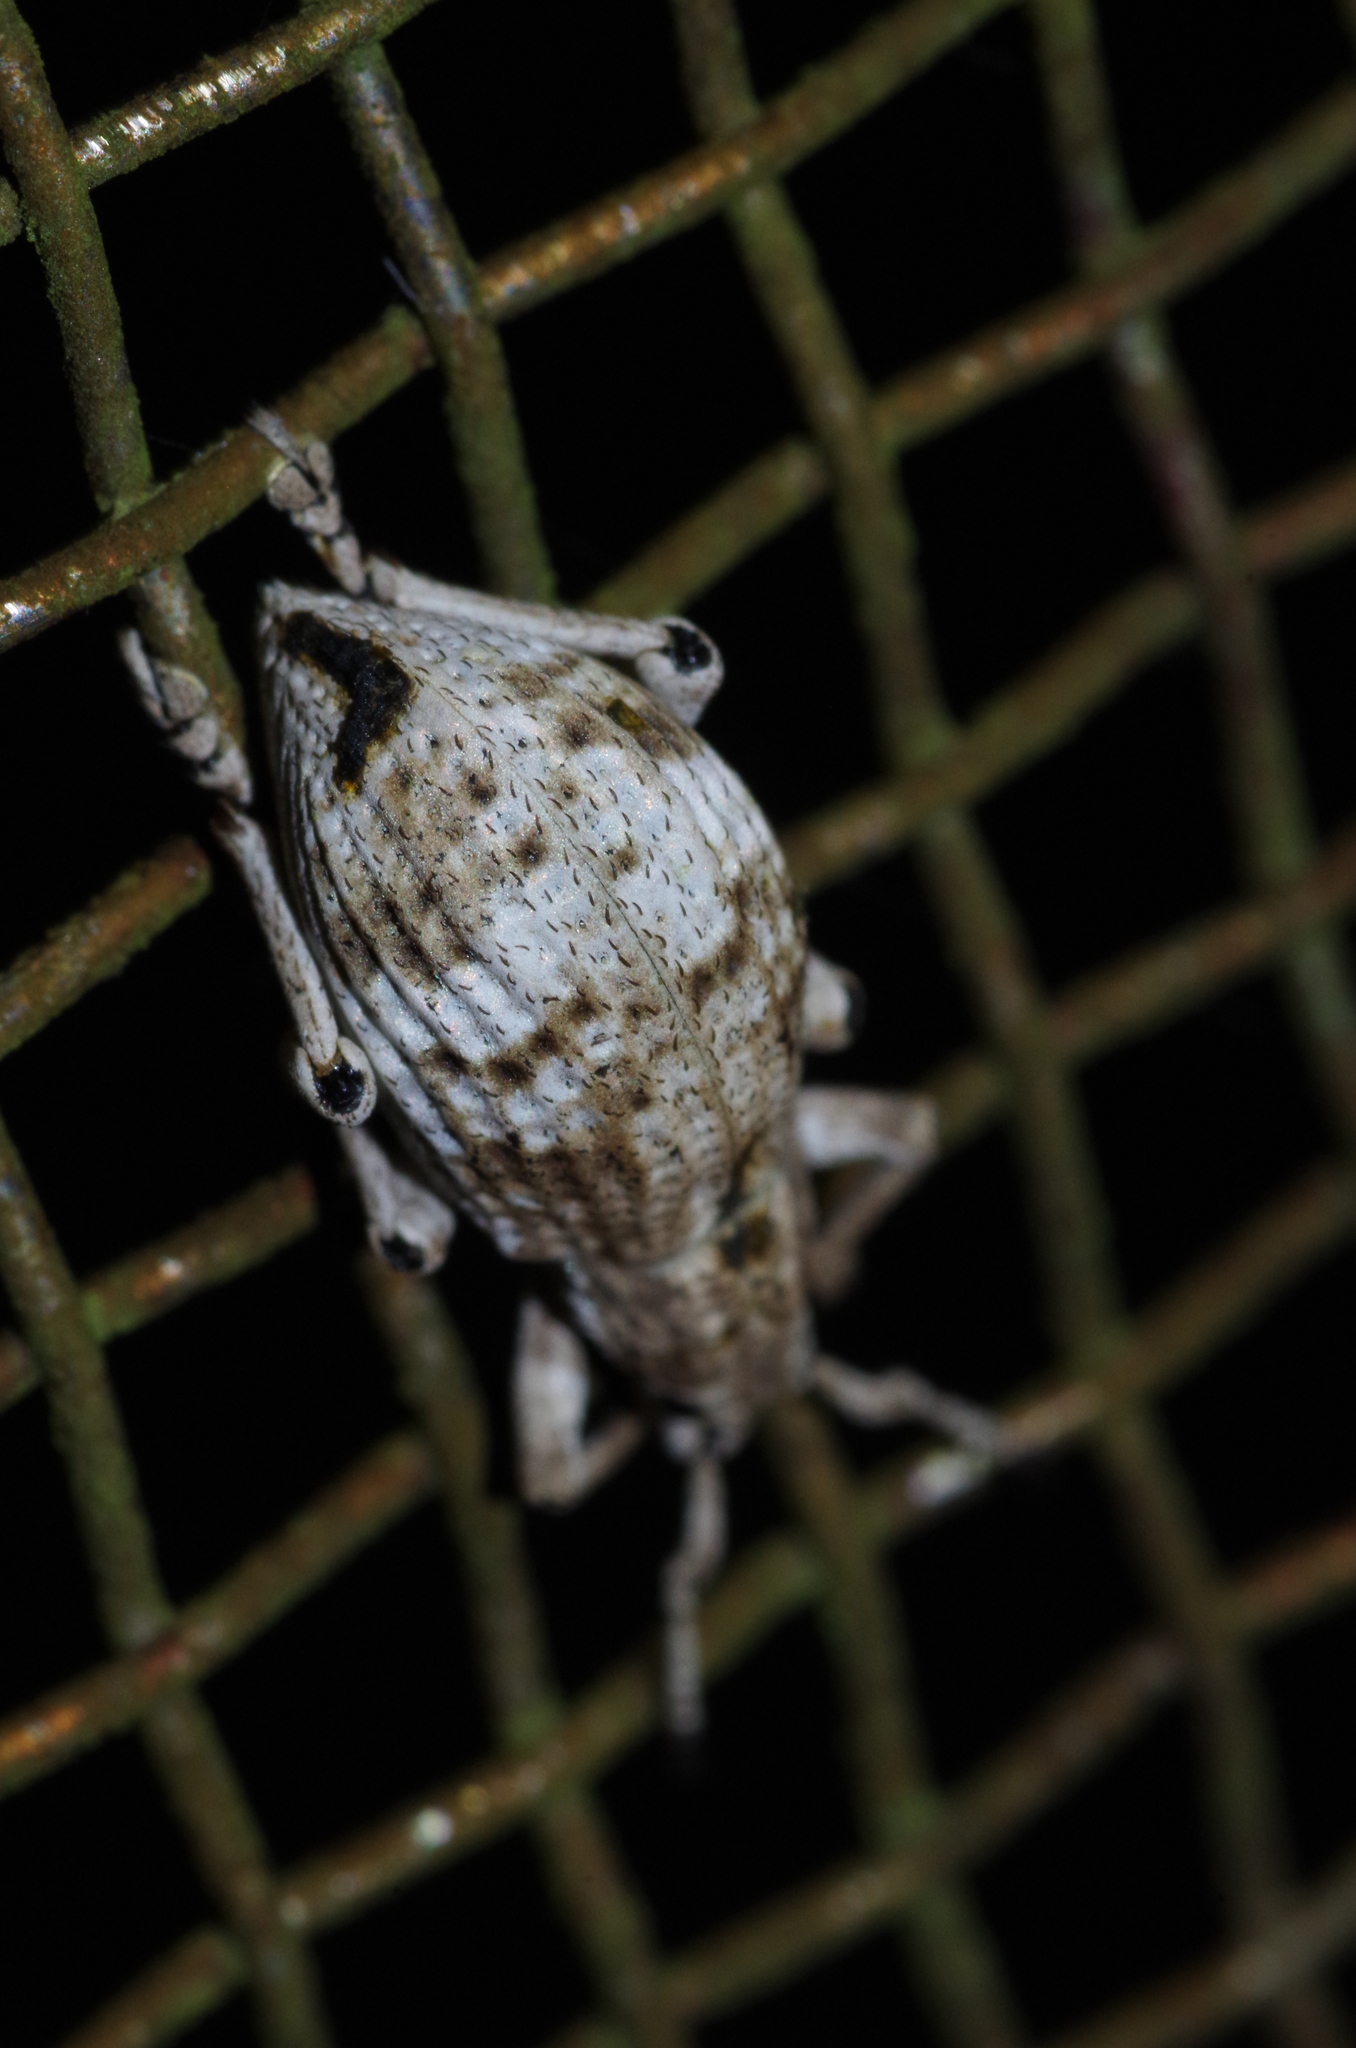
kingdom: Animalia
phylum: Arthropoda
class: Insecta
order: Coleoptera
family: Curculionidae
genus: Episomus
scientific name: Episomus mori
